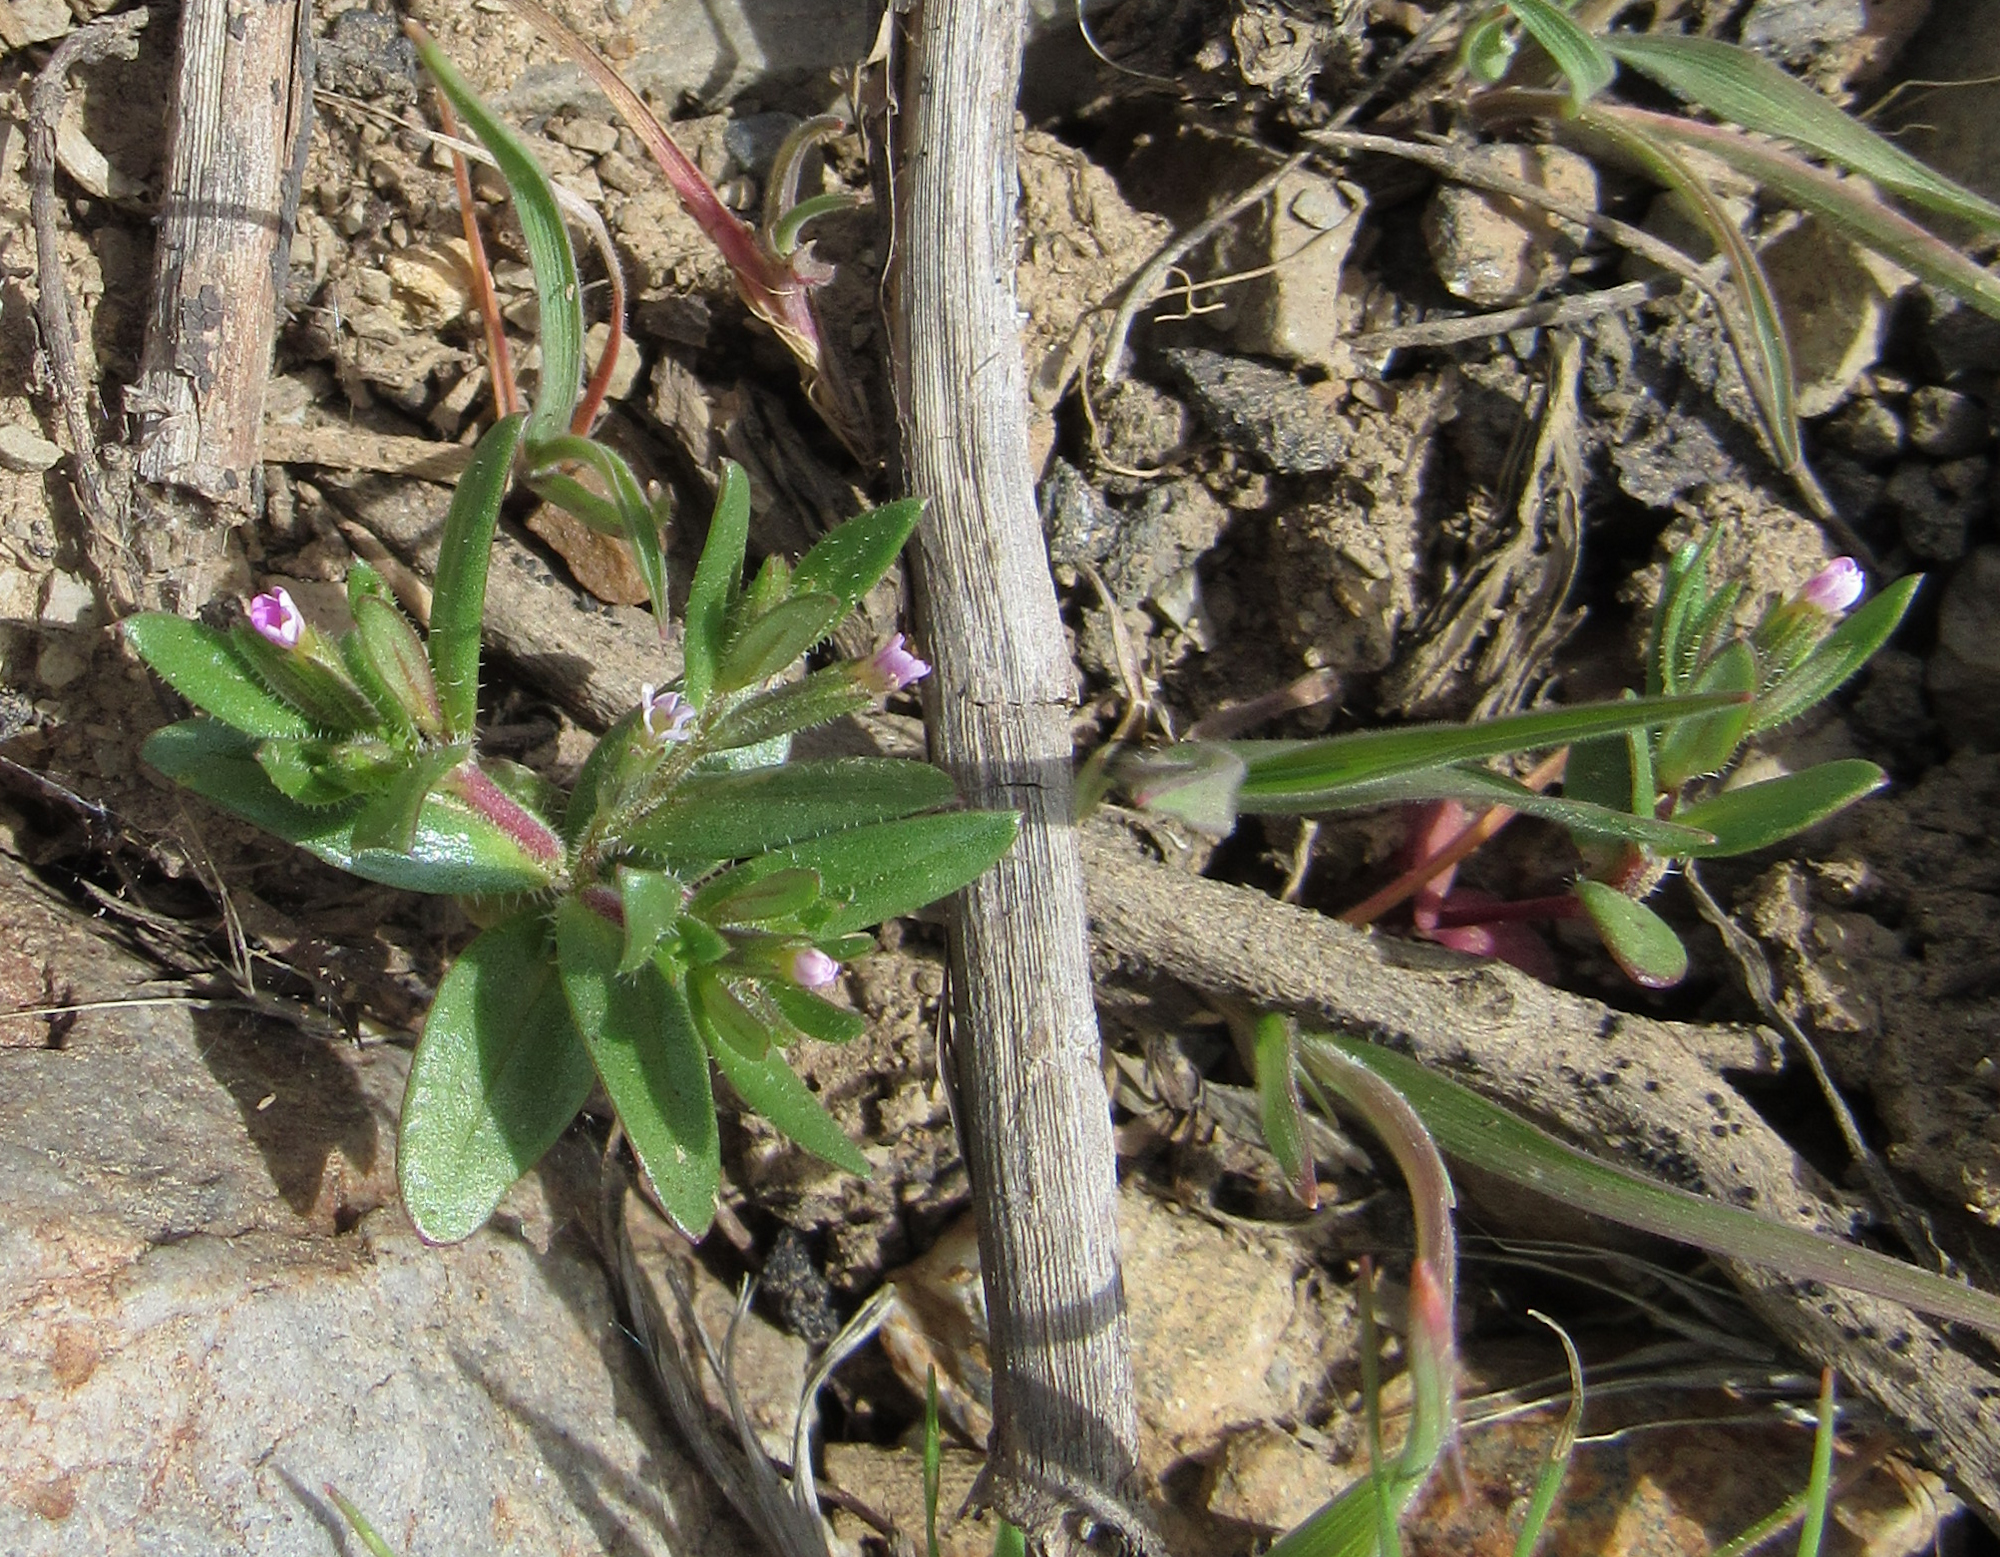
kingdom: Plantae
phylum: Tracheophyta
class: Magnoliopsida
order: Ericales
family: Polemoniaceae
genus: Phlox
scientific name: Phlox gracilis
